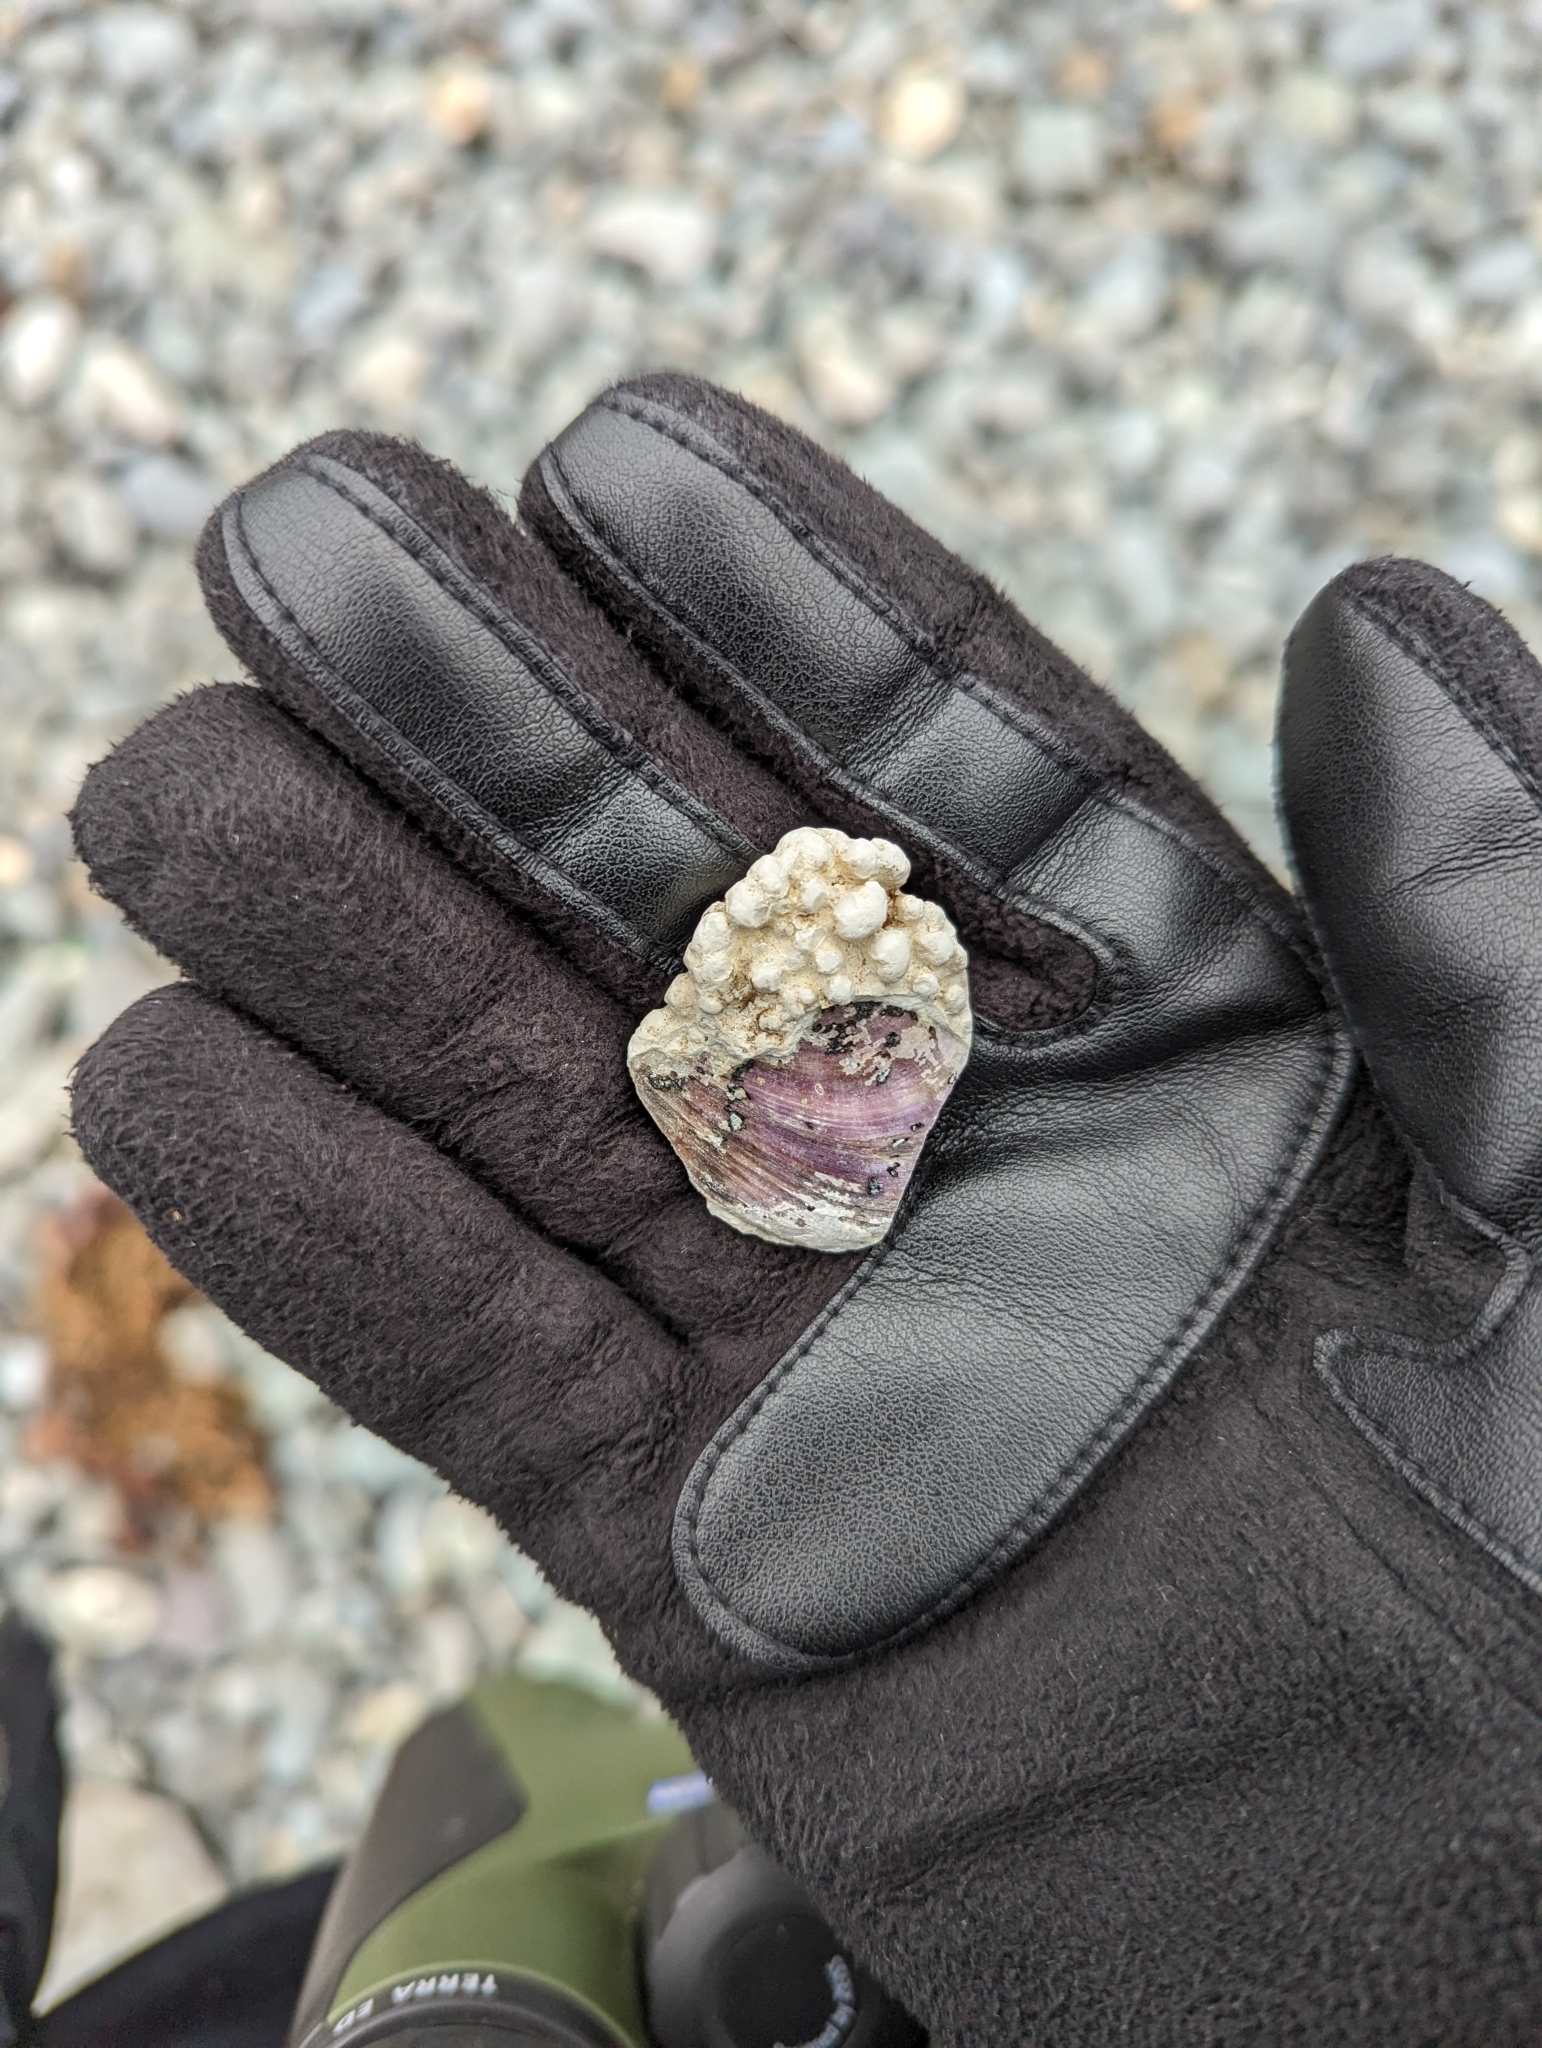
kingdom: Animalia
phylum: Mollusca
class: Bivalvia
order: Mytilida
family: Mytilidae
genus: Modiolus
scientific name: Modiolus modiolus
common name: Horse-mussel
